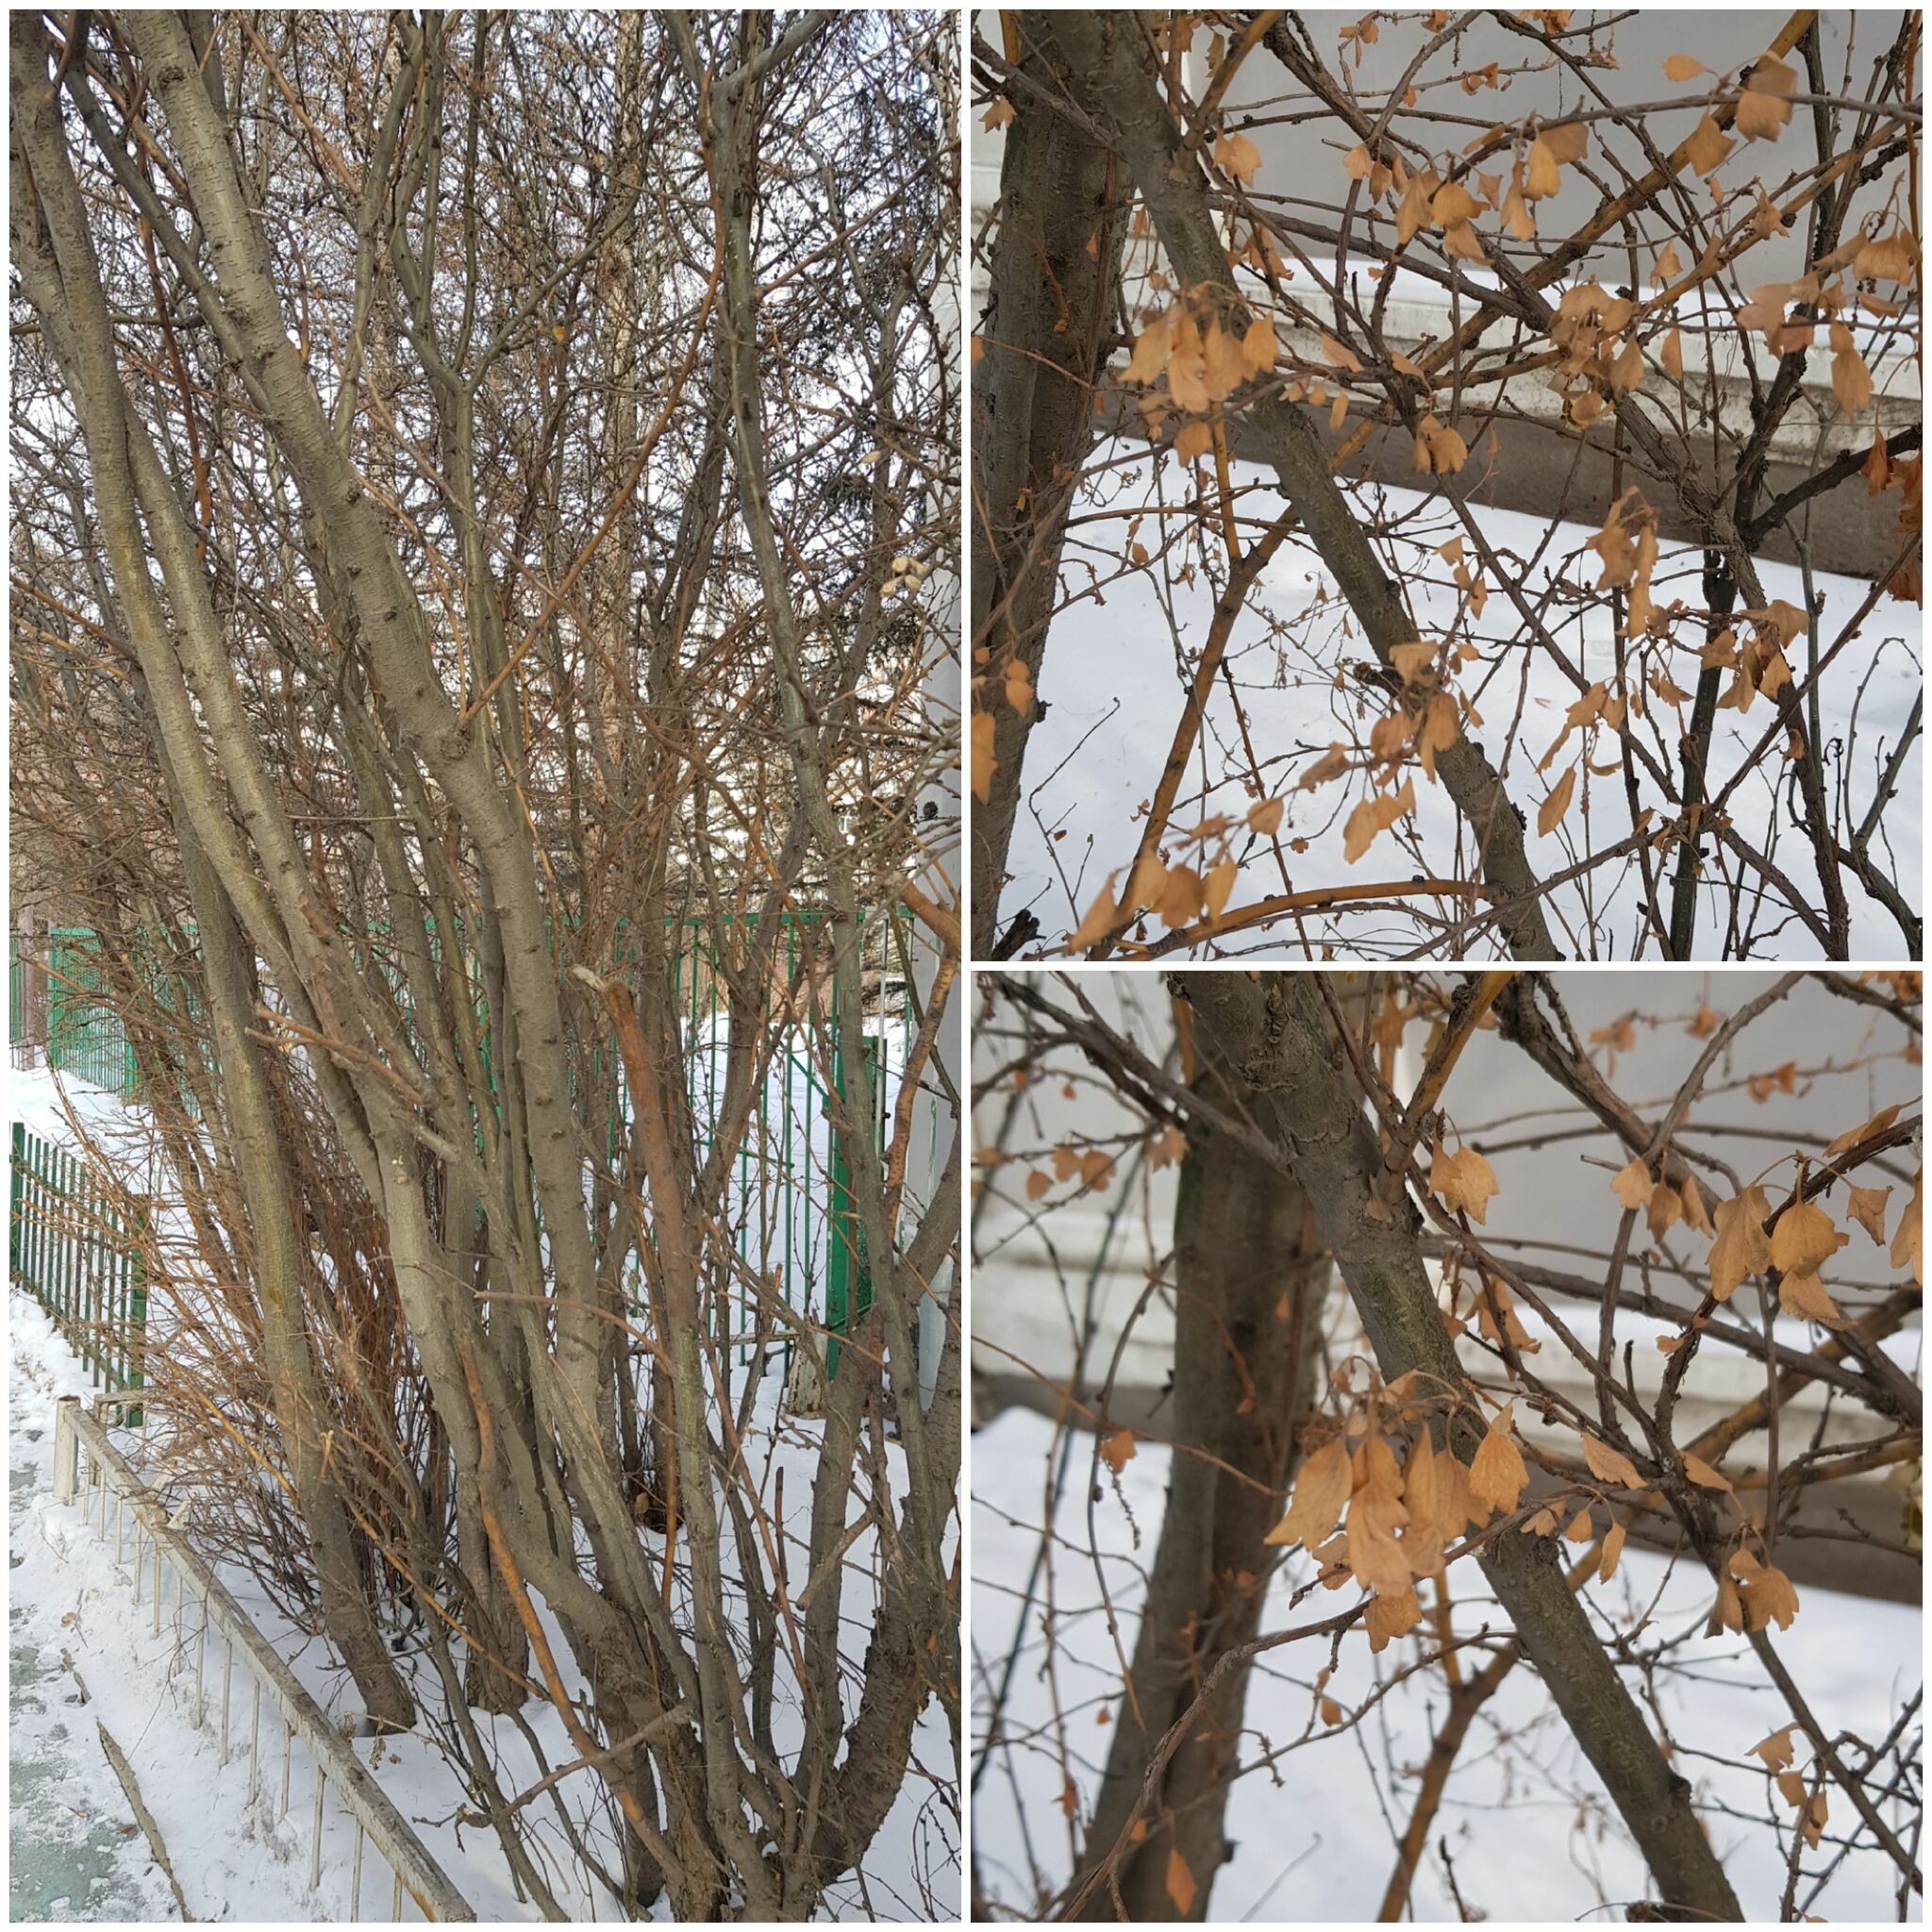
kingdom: Plantae
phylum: Tracheophyta
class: Magnoliopsida
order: Fabales
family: Fabaceae
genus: Caragana
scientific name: Caragana arborescens
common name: Siberian peashrub
